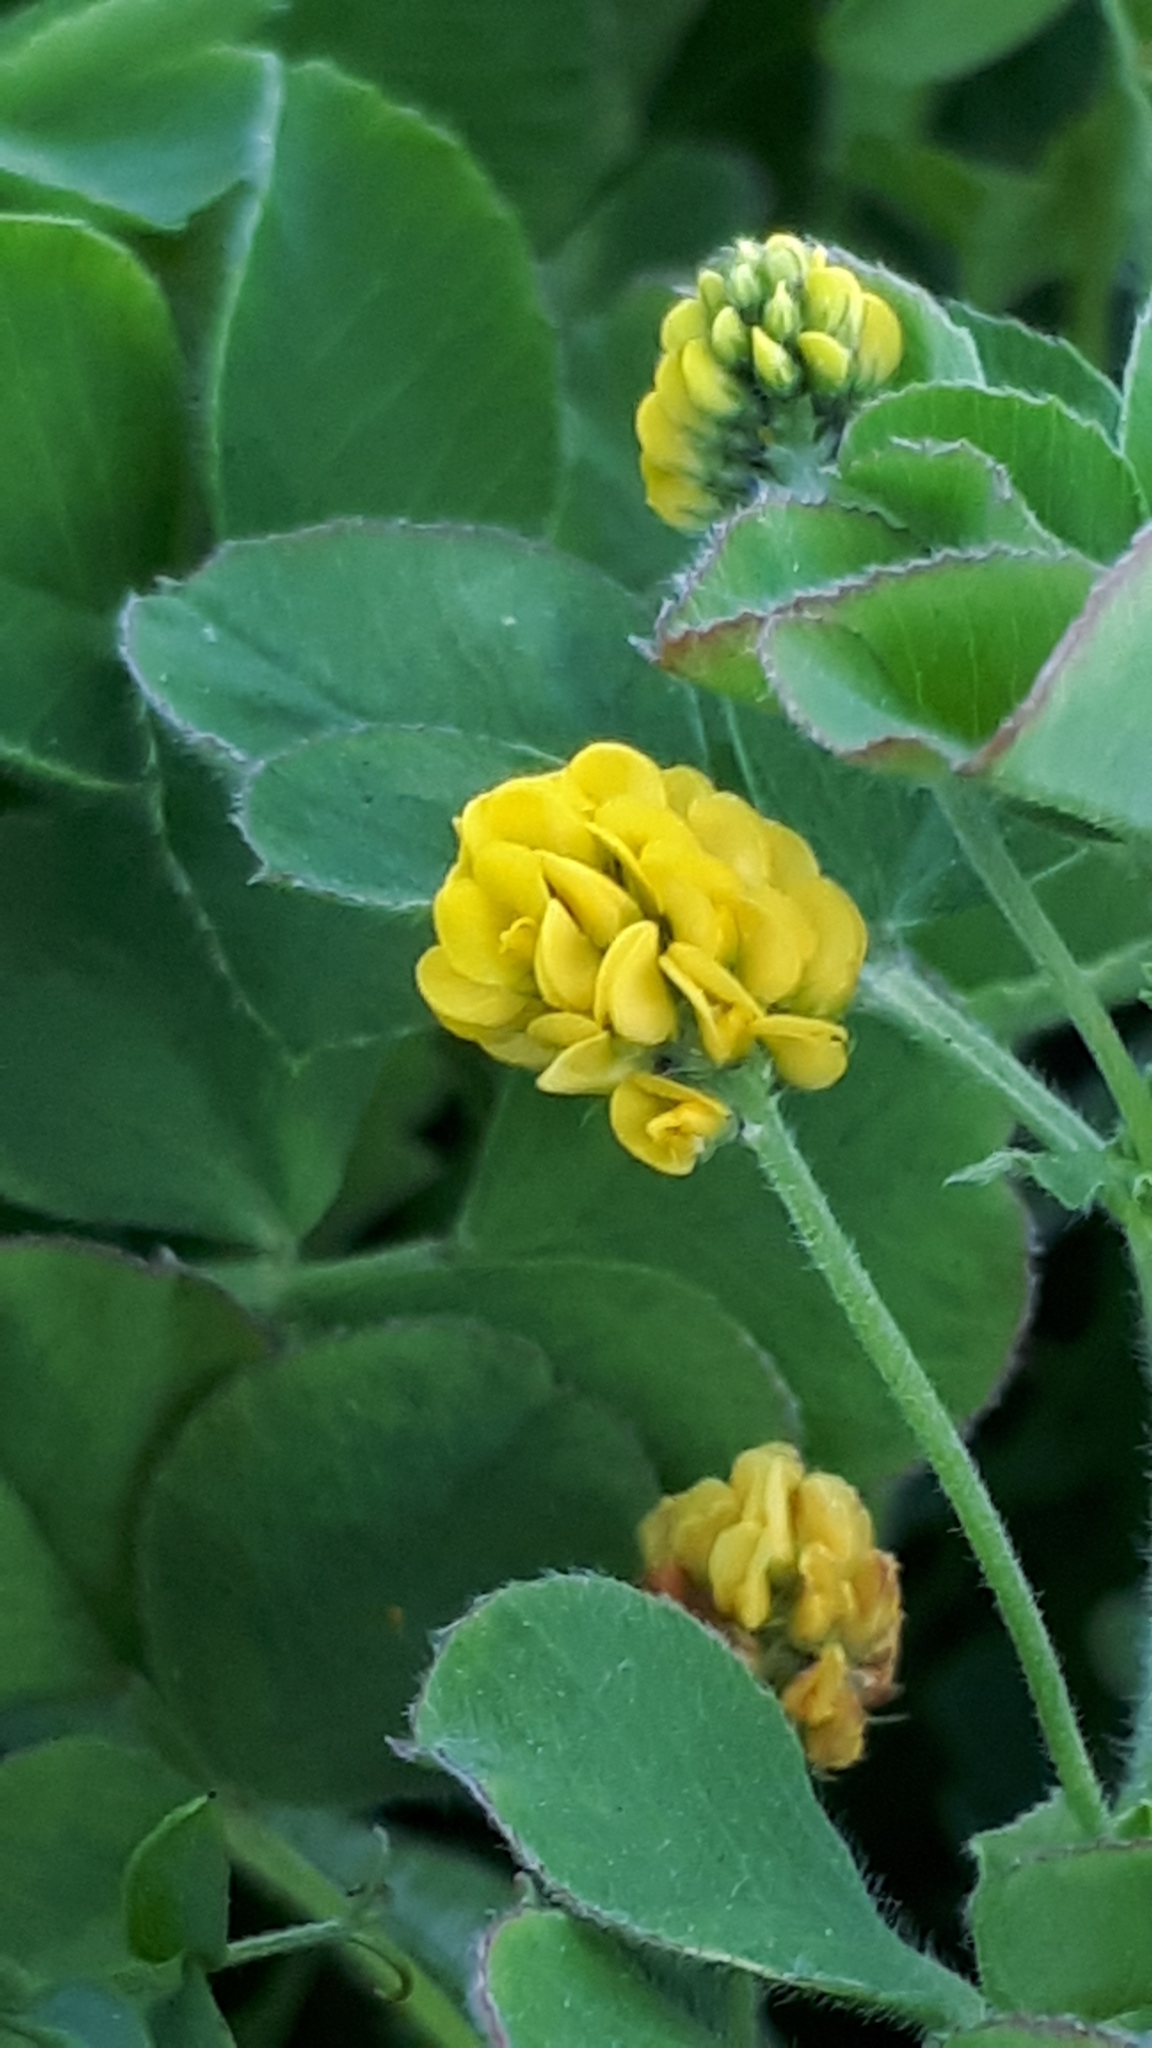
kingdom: Plantae
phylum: Tracheophyta
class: Magnoliopsida
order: Fabales
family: Fabaceae
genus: Medicago
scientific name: Medicago lupulina
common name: Black medick
